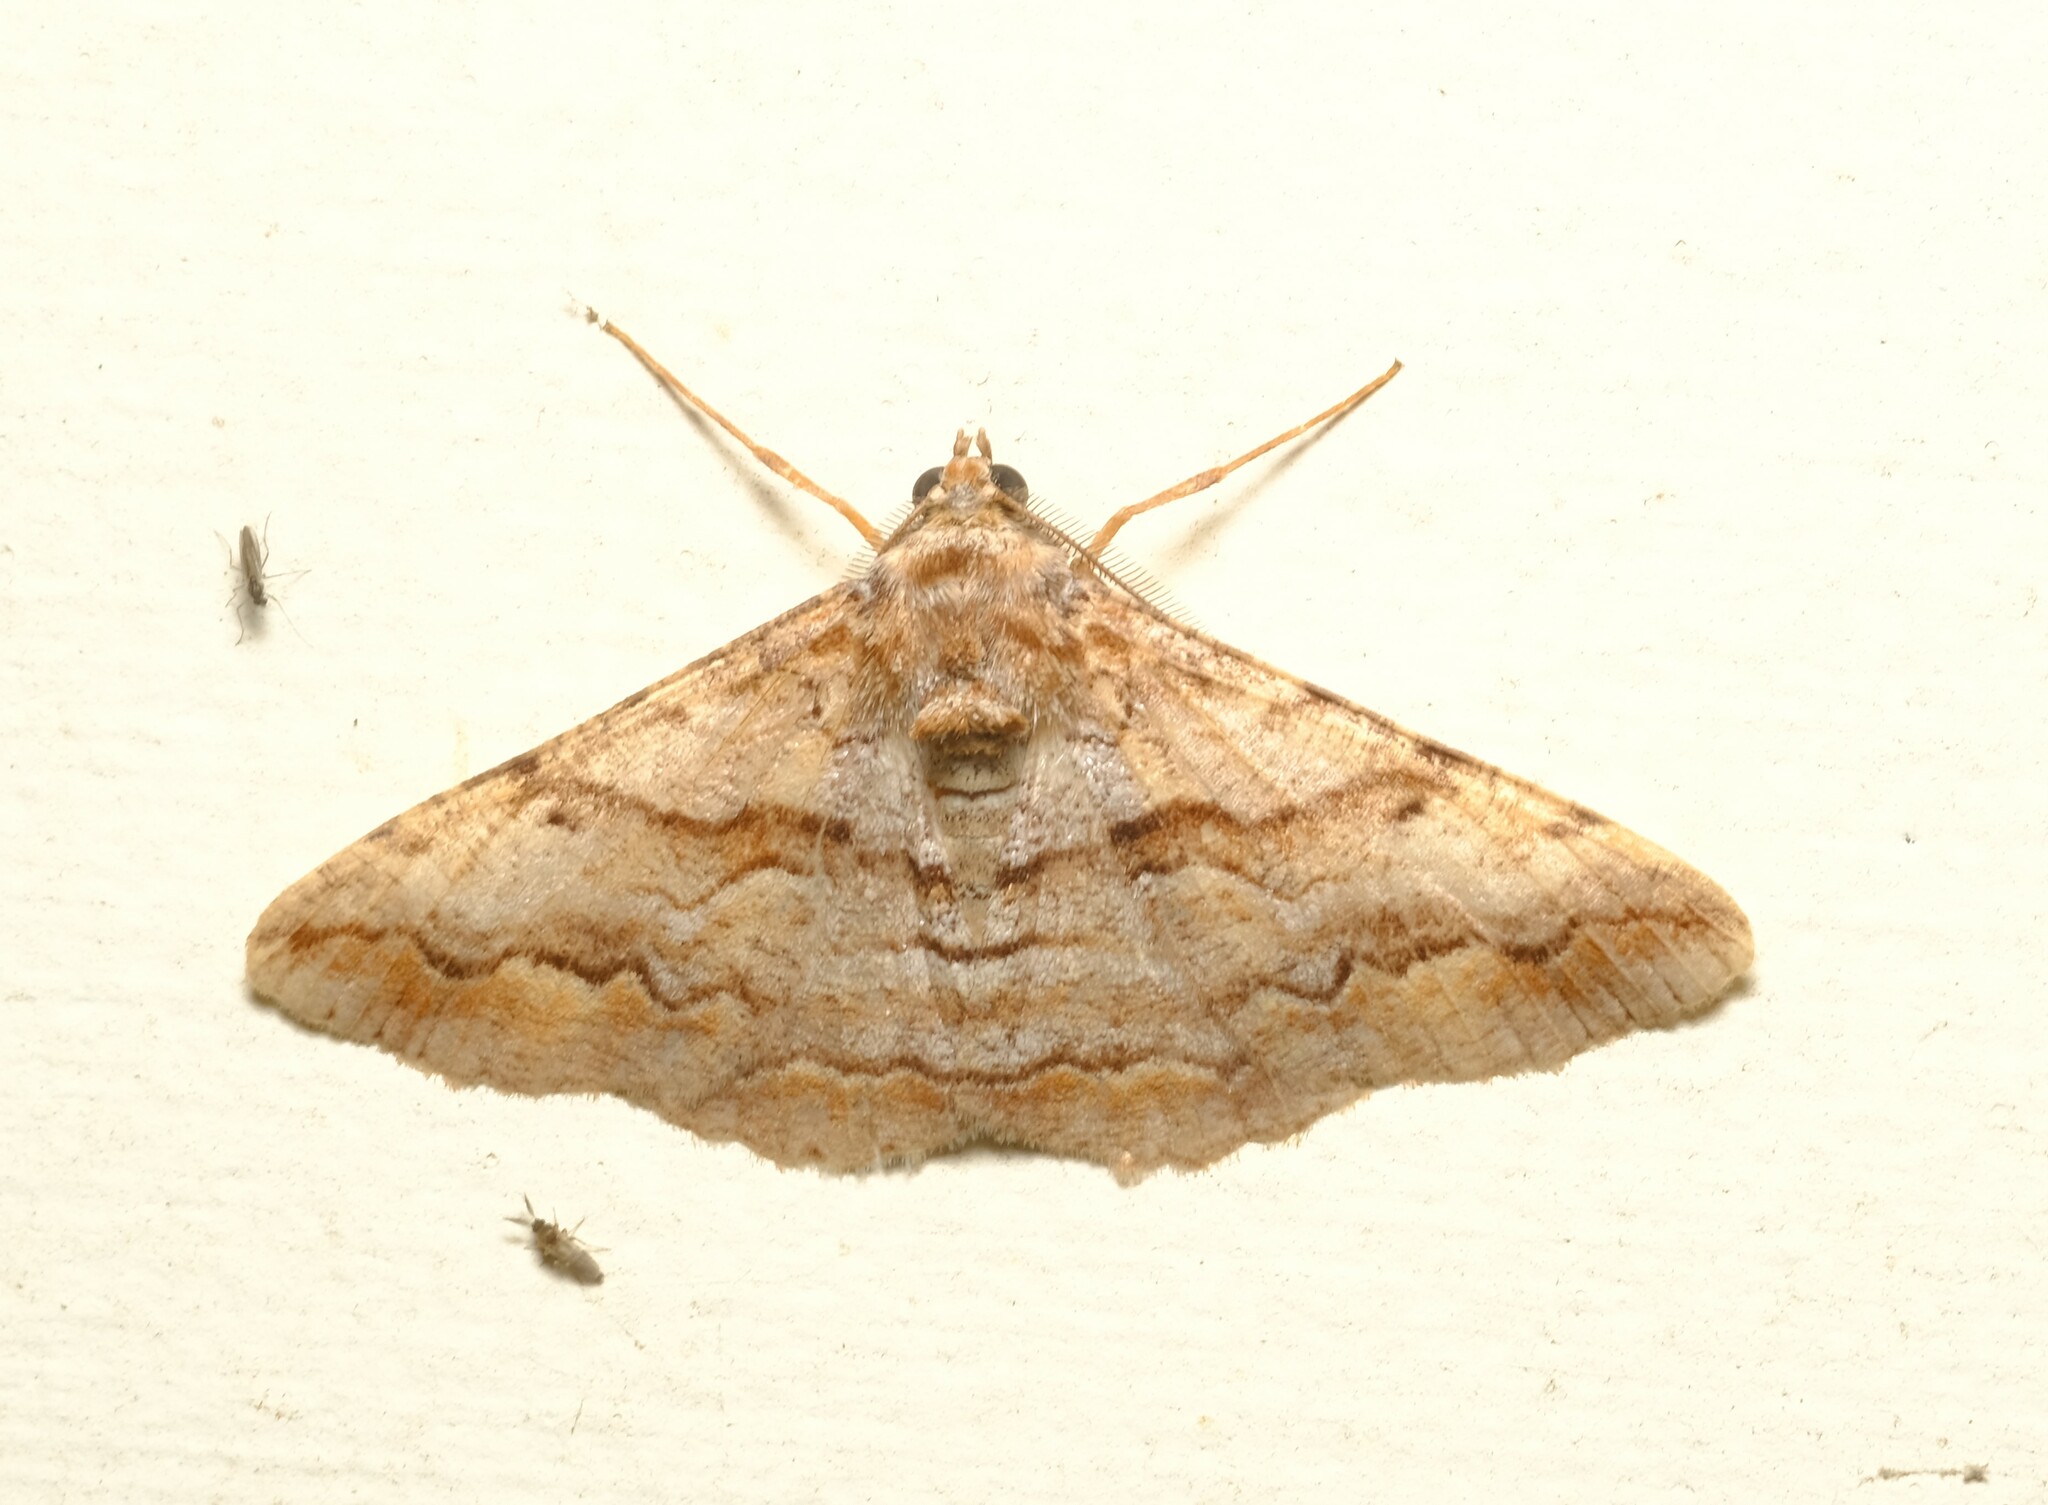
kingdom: Animalia
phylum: Arthropoda
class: Insecta
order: Lepidoptera
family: Geometridae
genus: Gastrinodes
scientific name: Gastrinodes bitaeniaria
